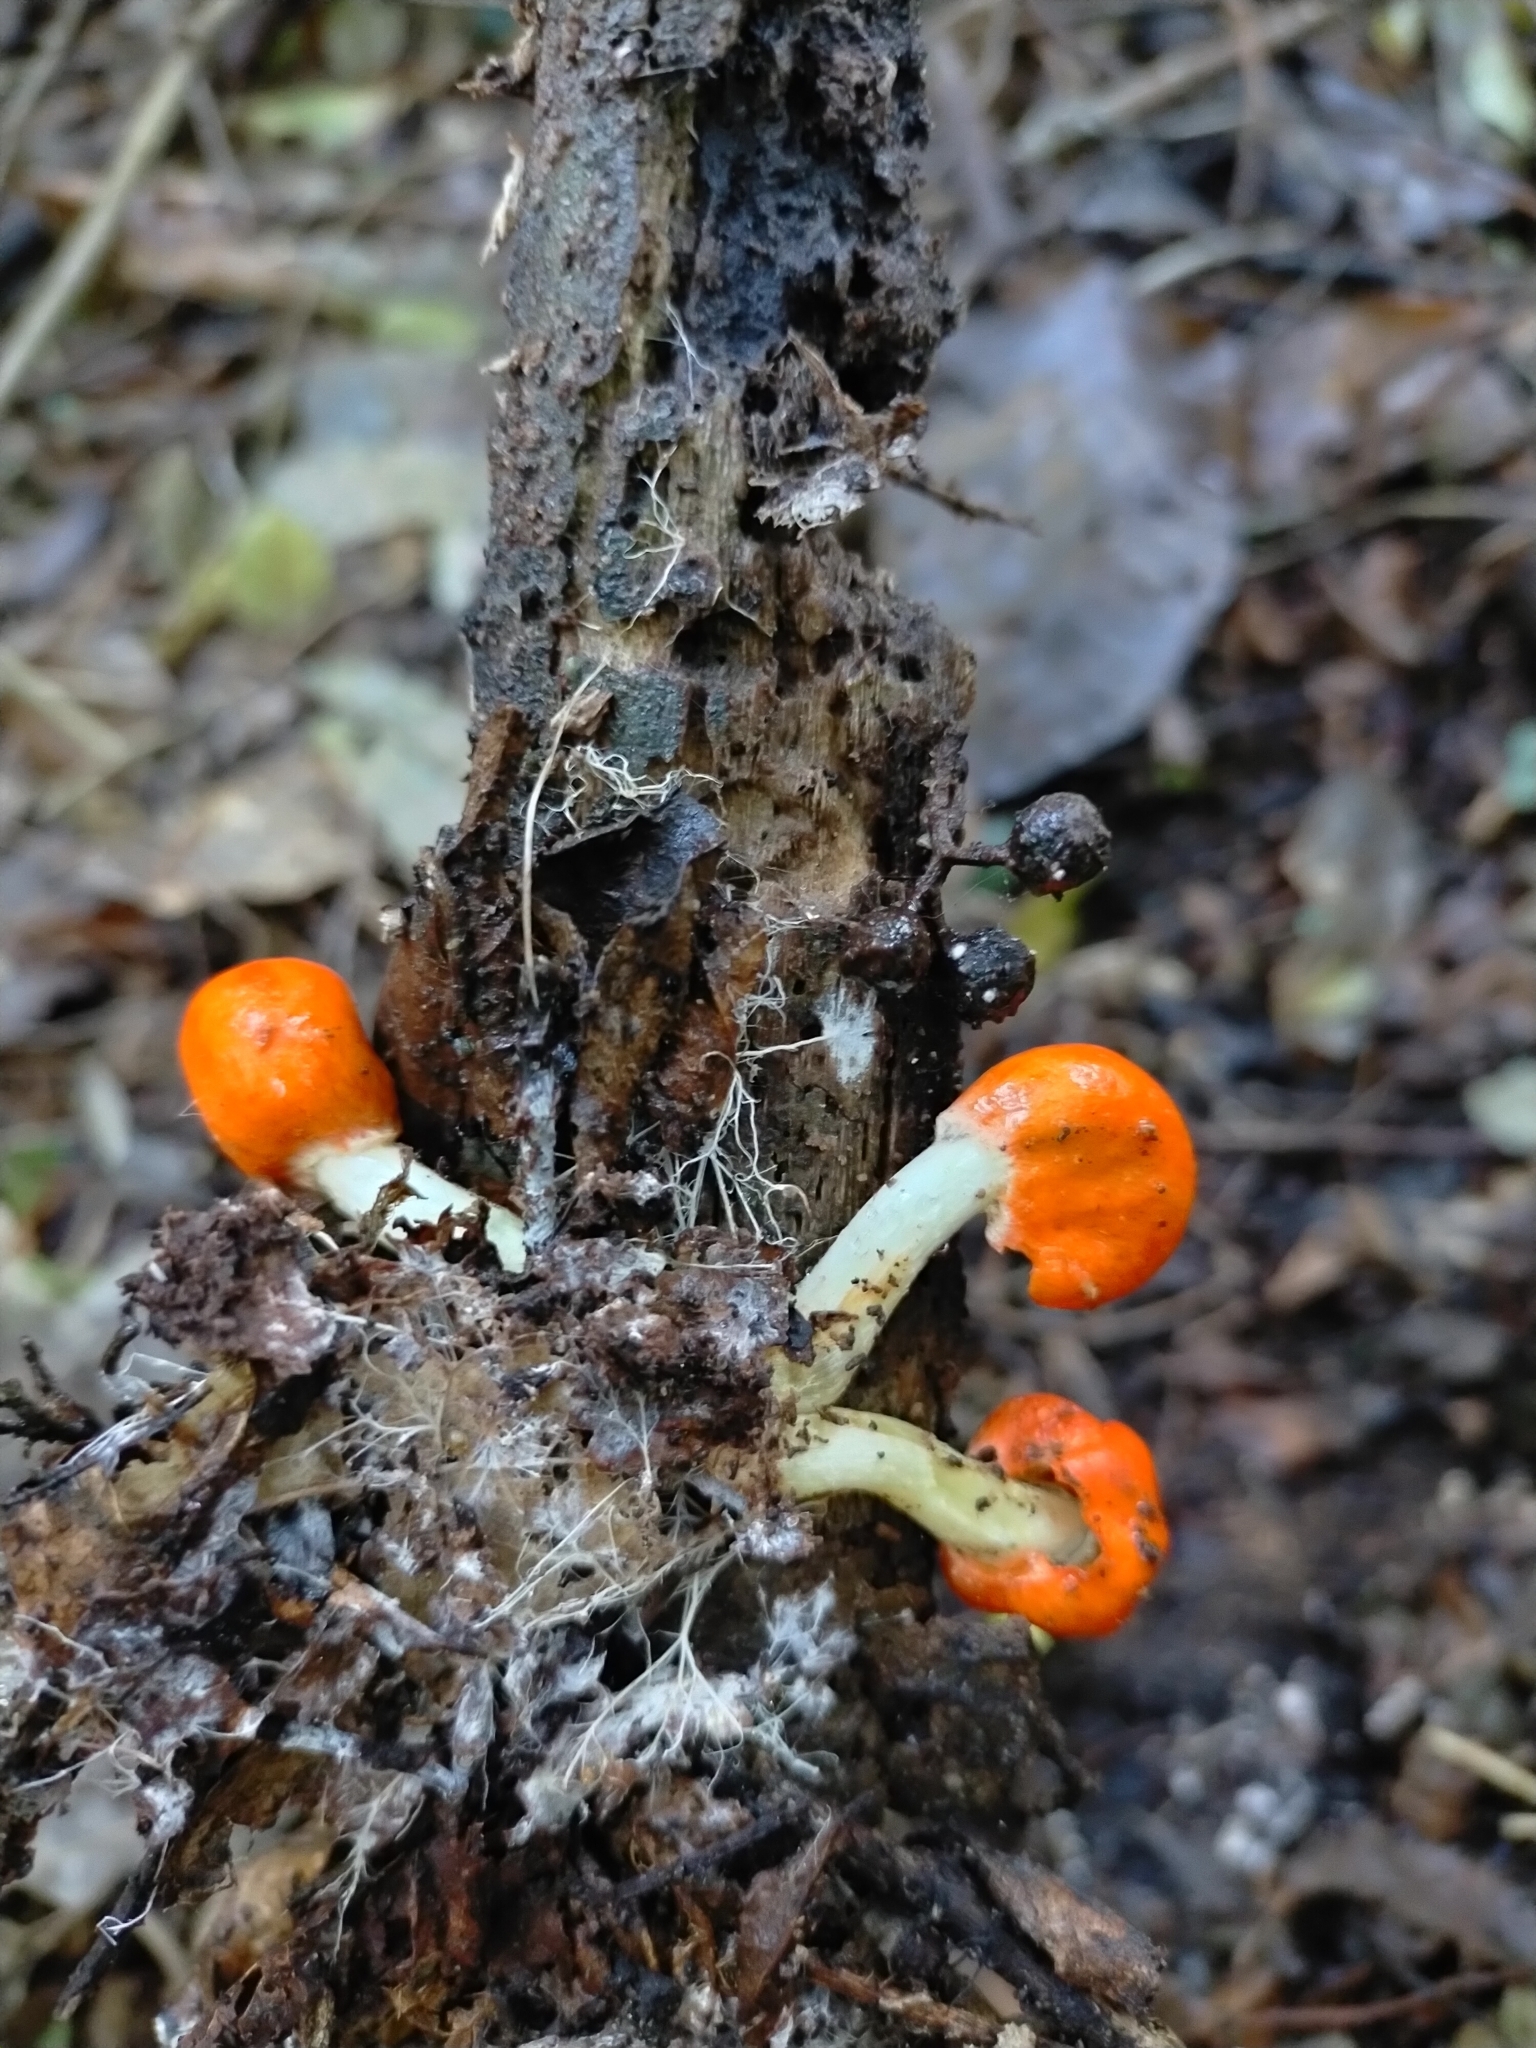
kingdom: Fungi
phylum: Basidiomycota
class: Agaricomycetes
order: Agaricales
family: Strophariaceae
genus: Leratiomyces
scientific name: Leratiomyces erythrocephalus
